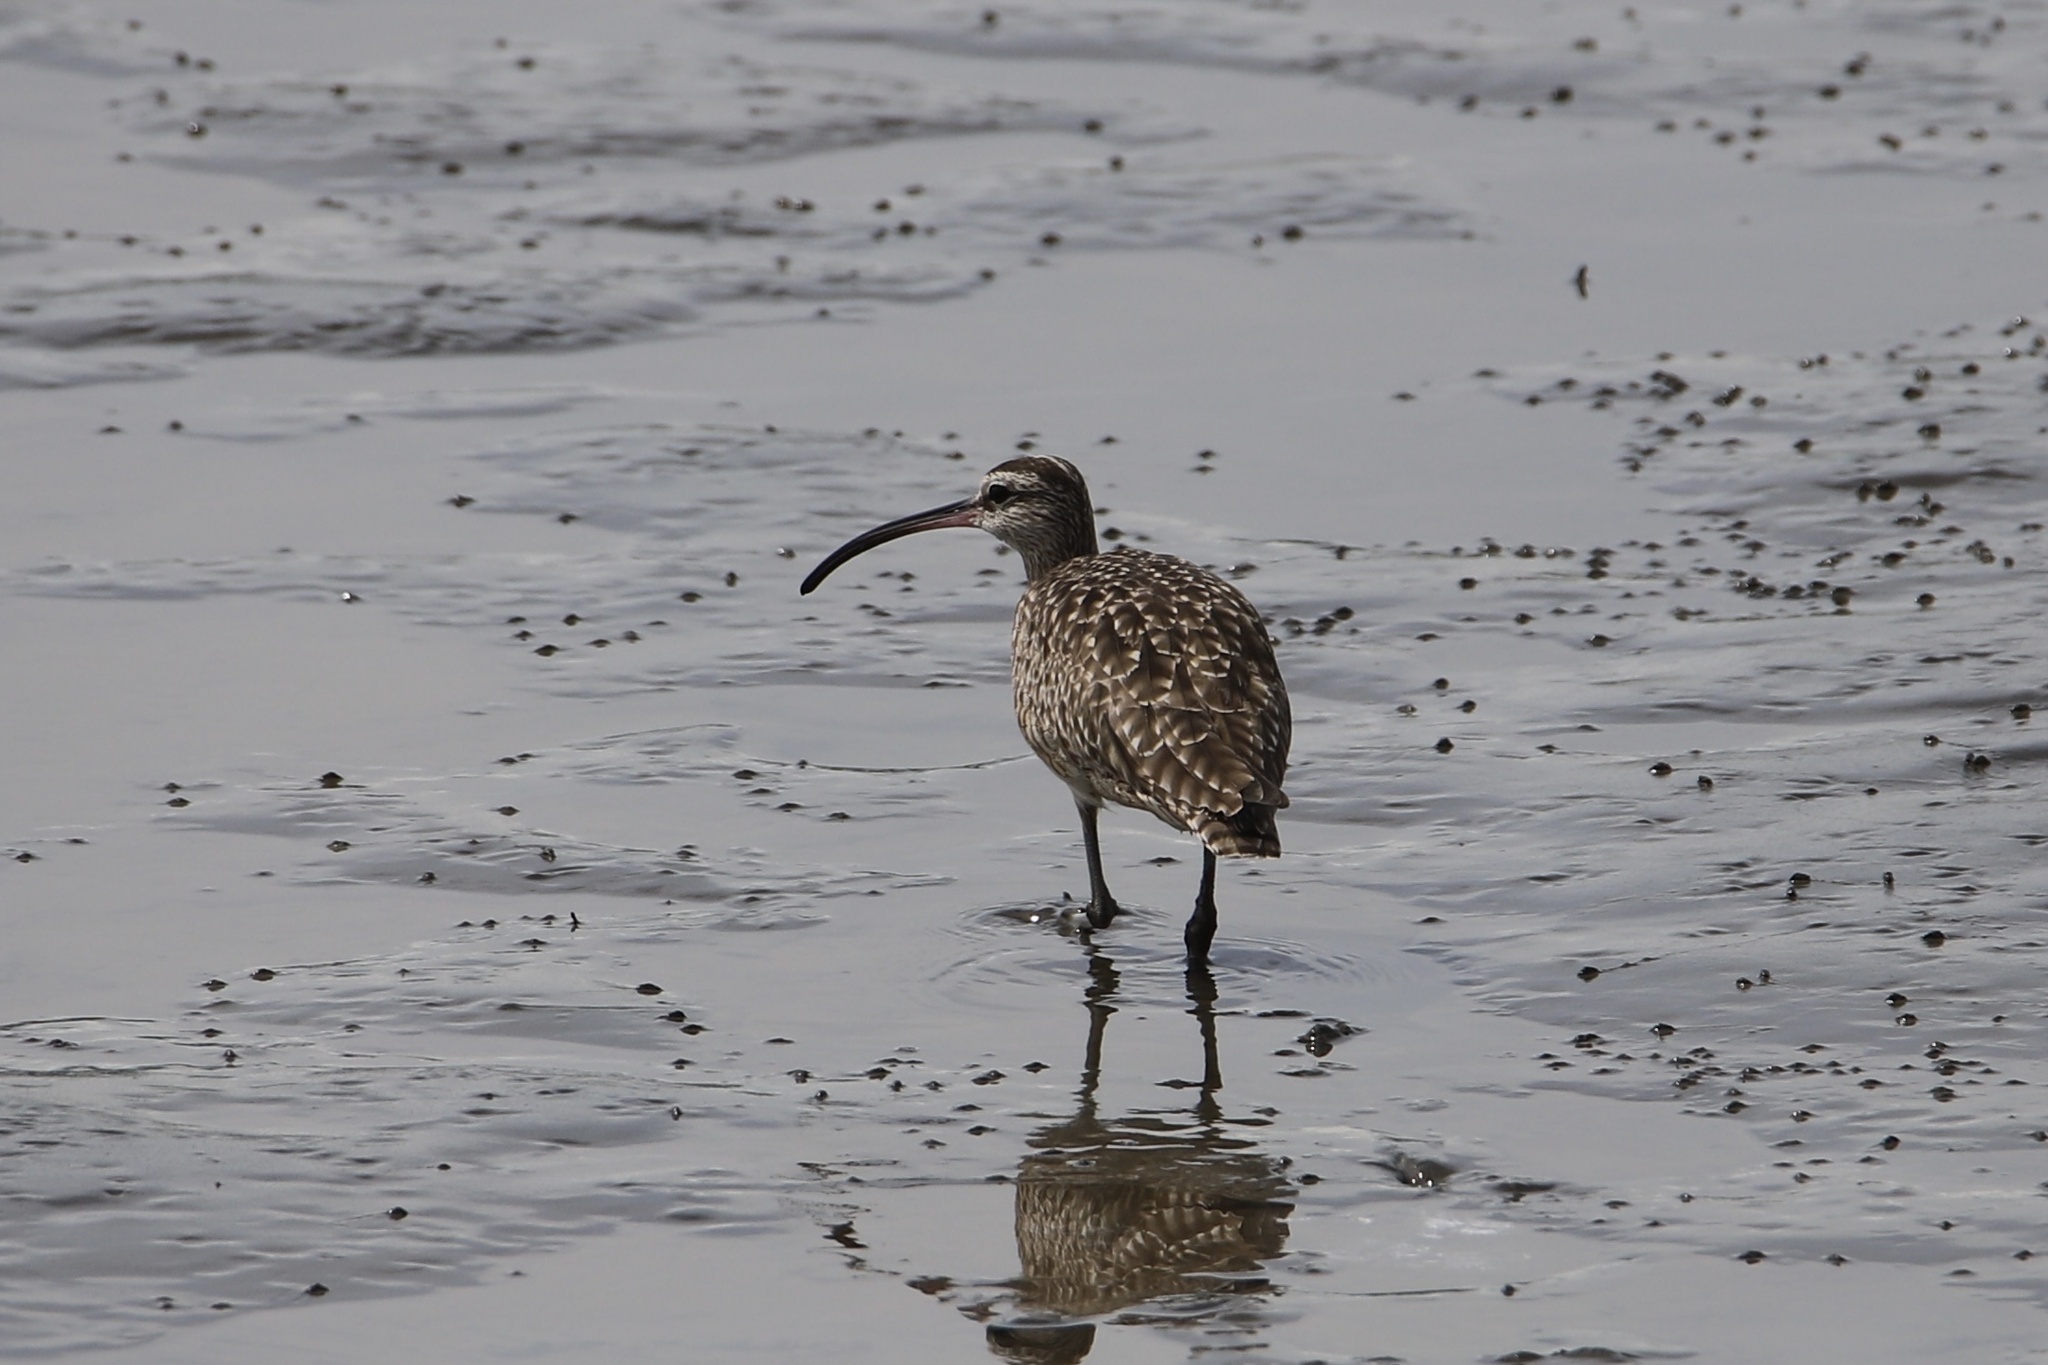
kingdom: Animalia
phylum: Chordata
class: Aves
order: Charadriiformes
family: Scolopacidae
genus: Numenius
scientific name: Numenius phaeopus
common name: Whimbrel
